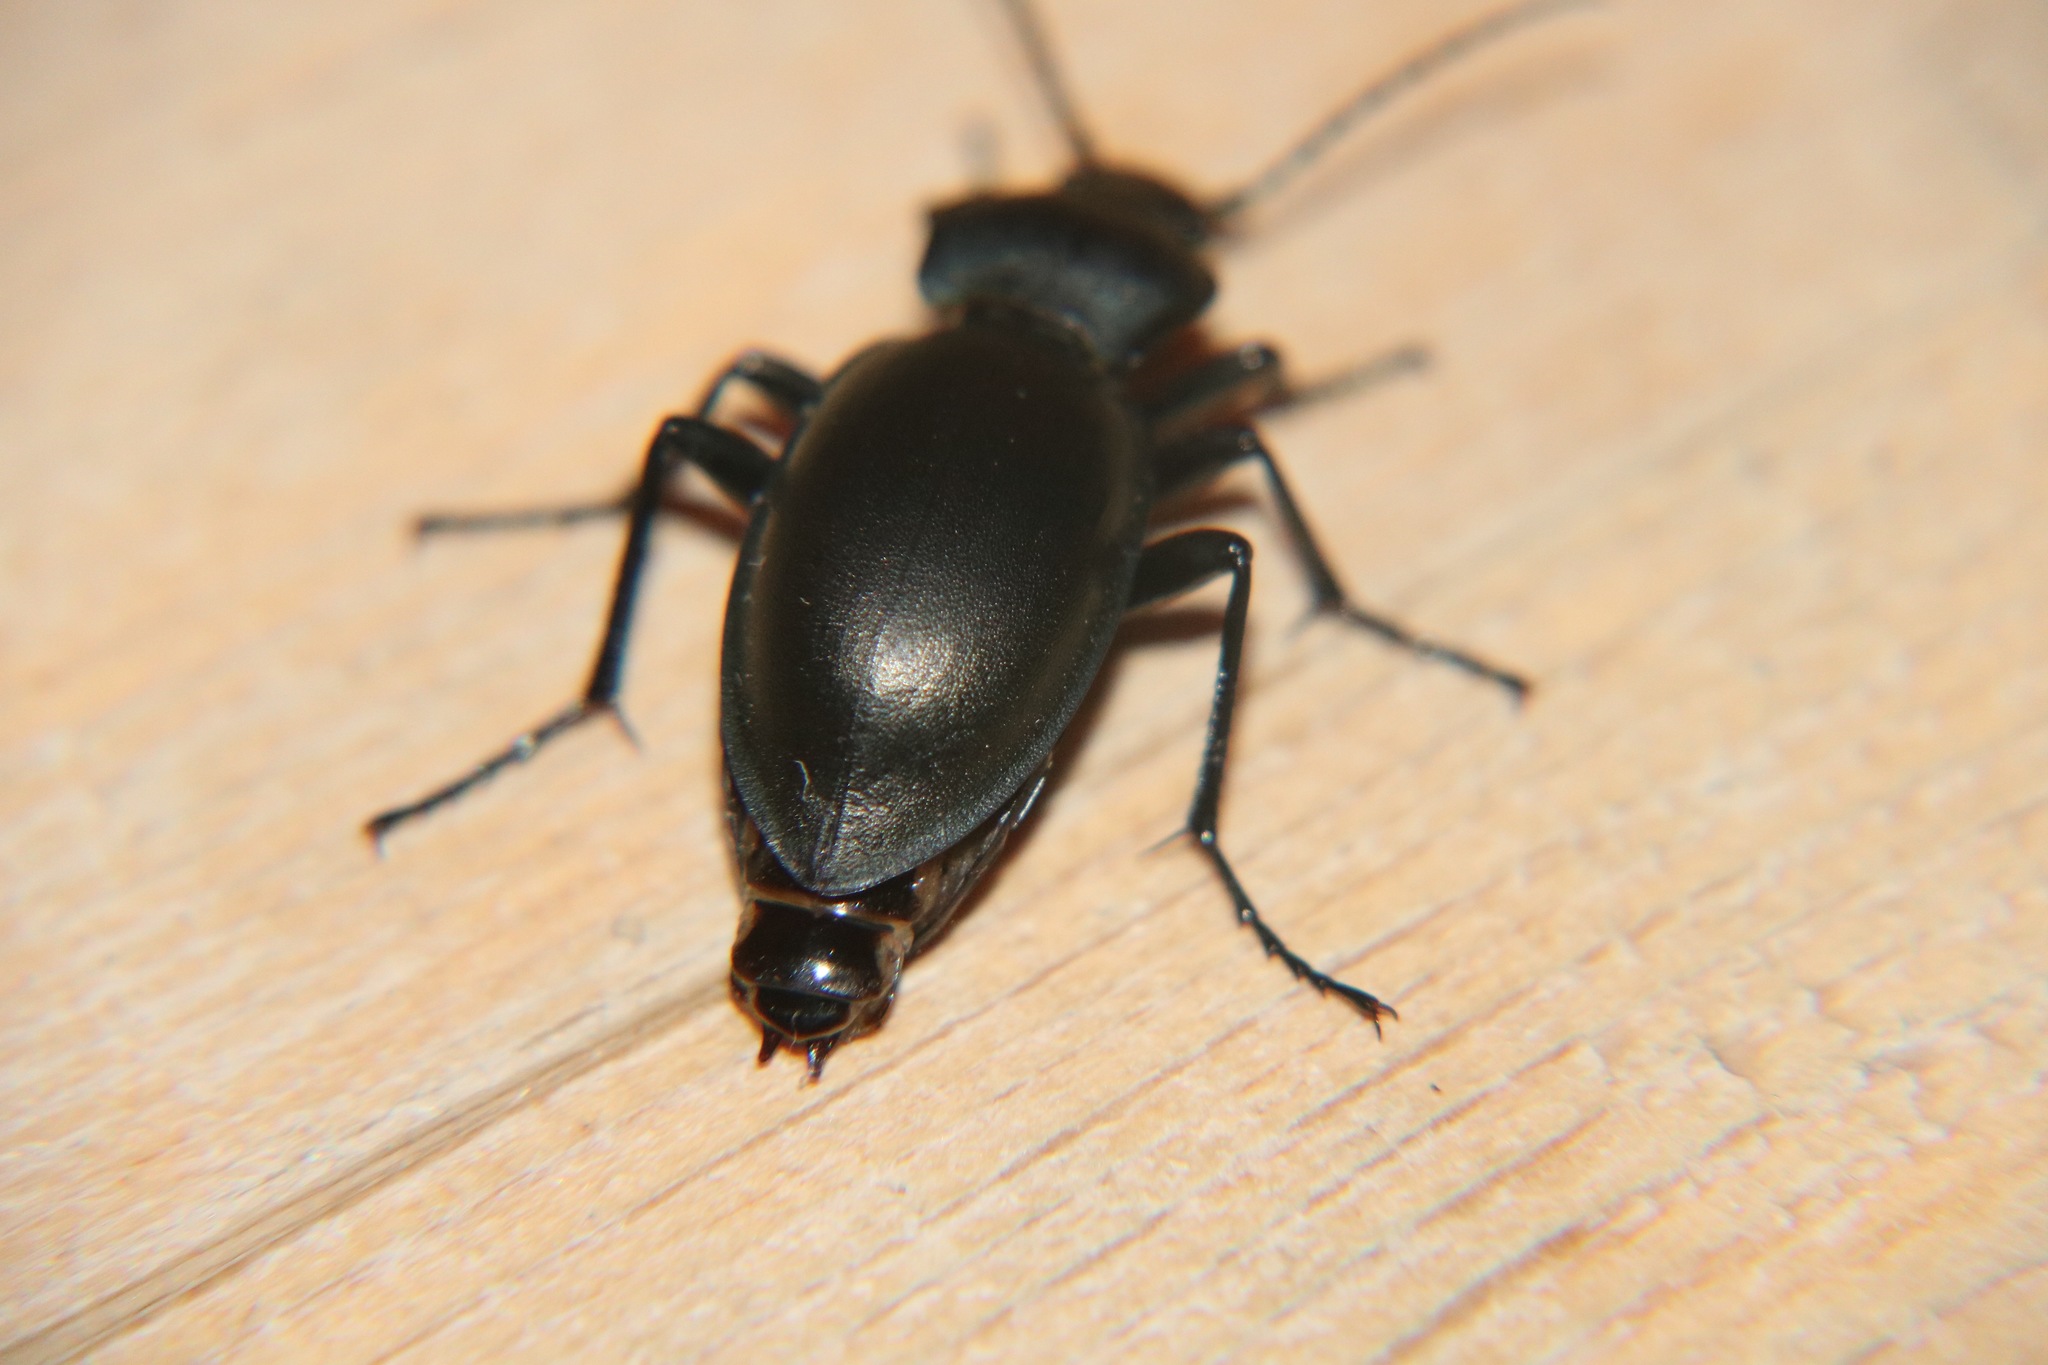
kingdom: Animalia
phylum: Arthropoda
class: Insecta
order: Coleoptera
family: Carabidae
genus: Carabus
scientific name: Carabus glabratus
